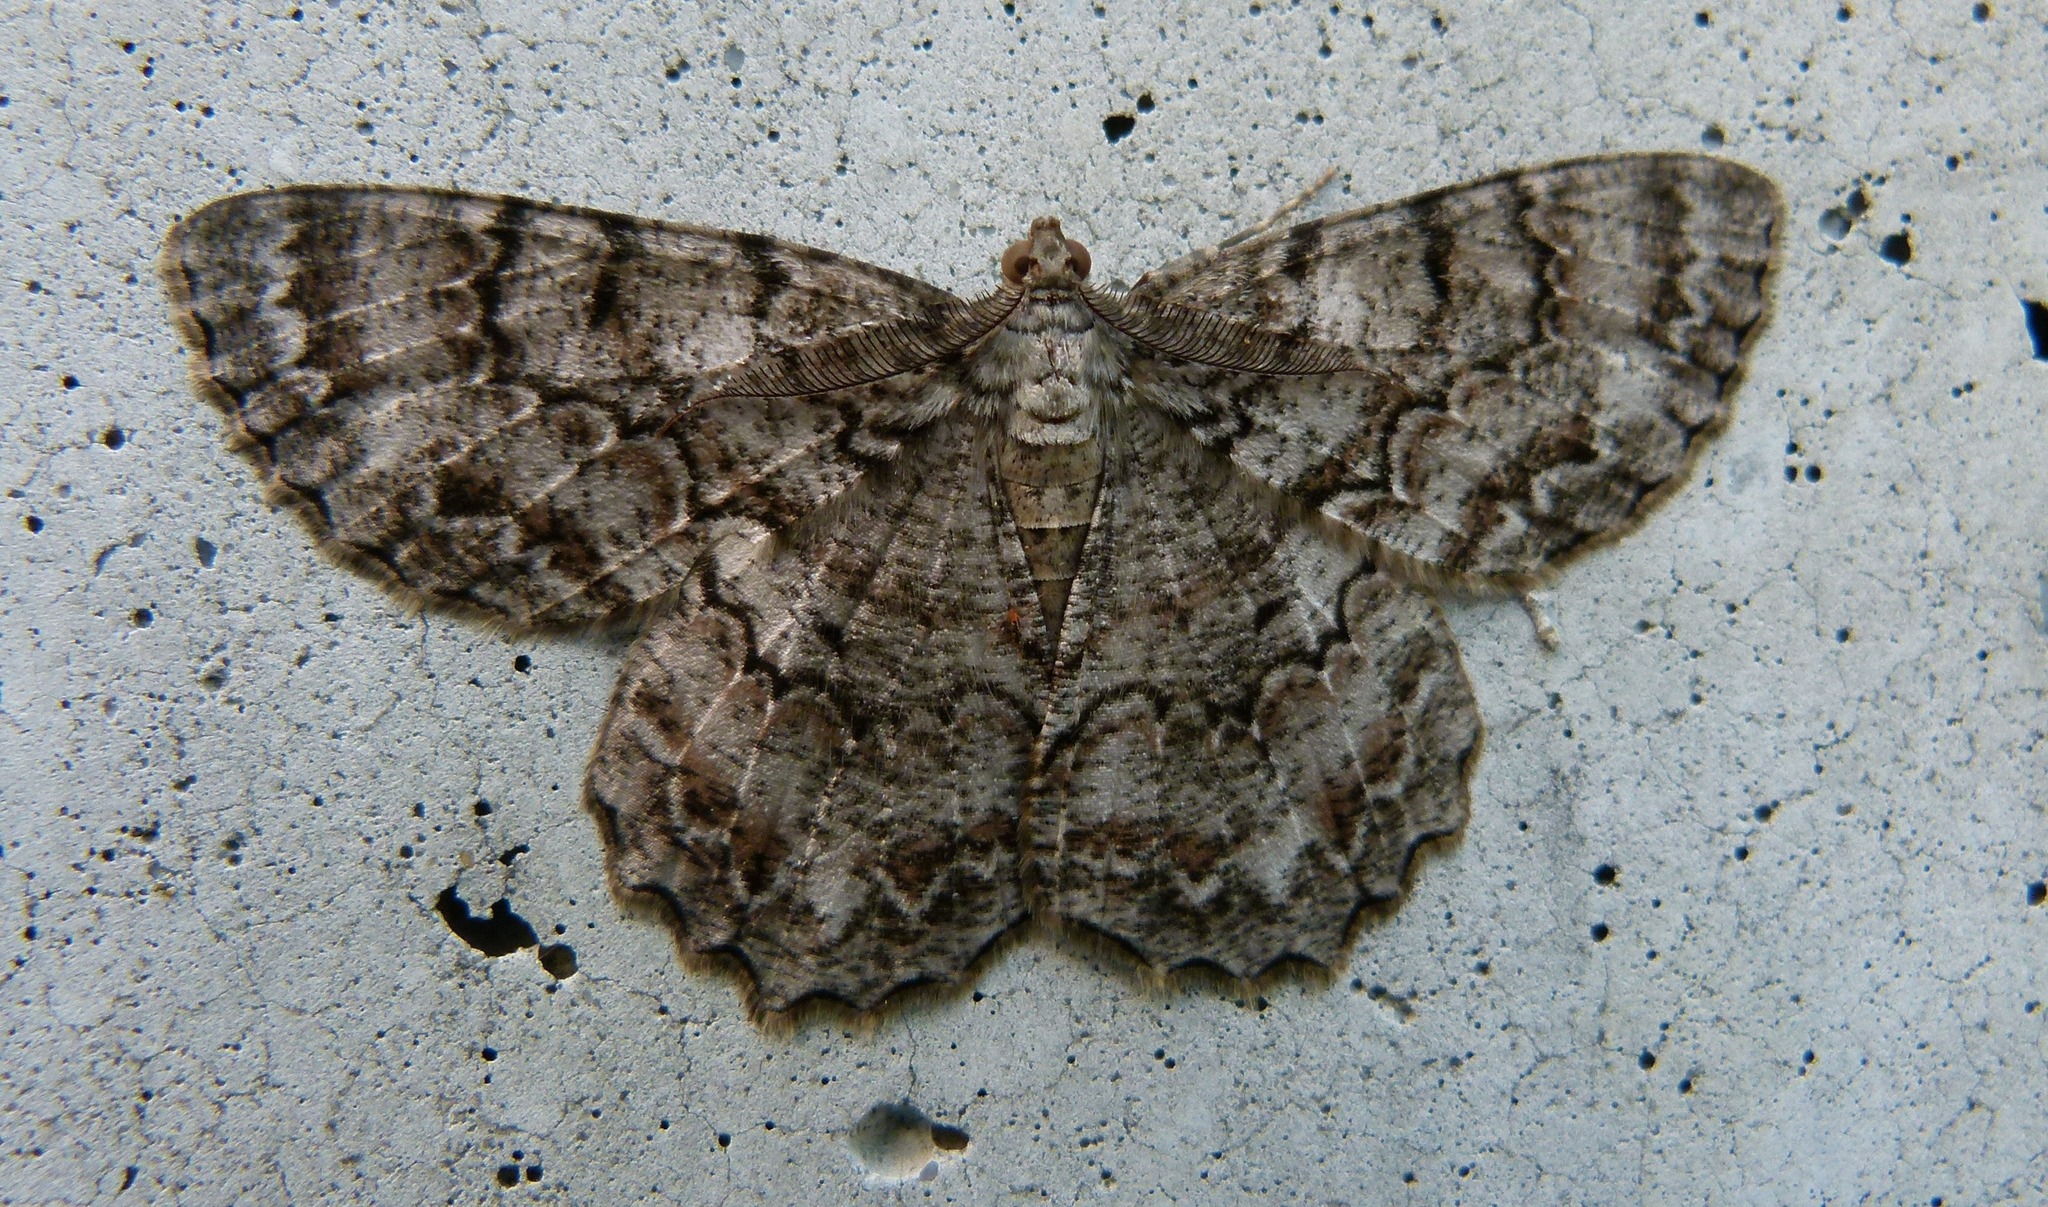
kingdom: Animalia
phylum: Arthropoda
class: Insecta
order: Lepidoptera
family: Geometridae
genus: Epimecis
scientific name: Epimecis hortaria
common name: Tulip-tree beauty
